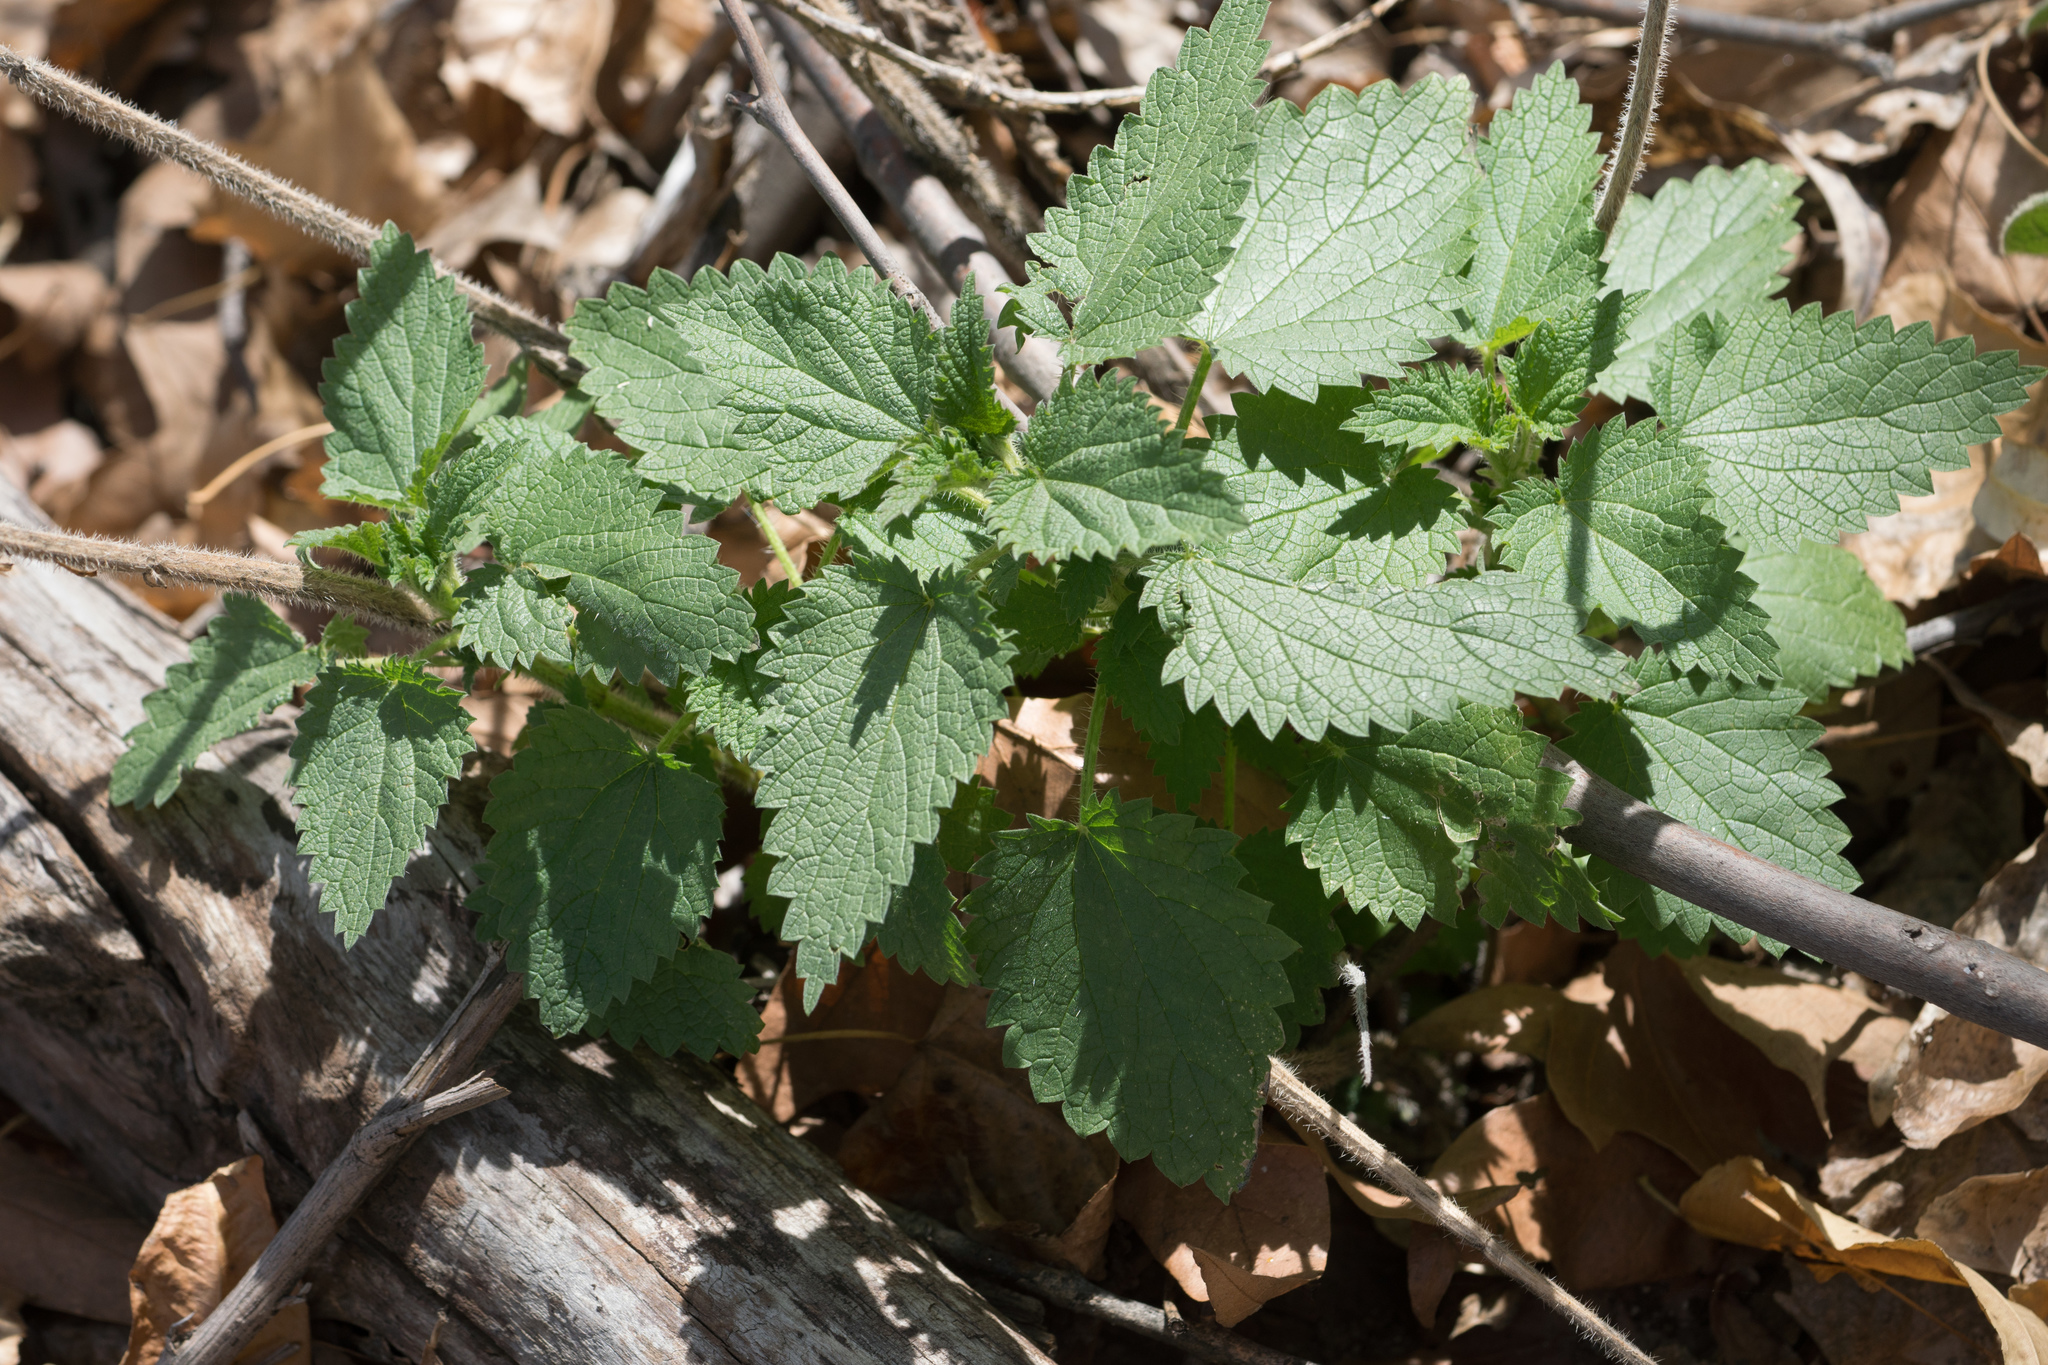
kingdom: Plantae
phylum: Tracheophyta
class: Magnoliopsida
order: Rosales
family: Urticaceae
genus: Urtica
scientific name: Urtica dioica
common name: Common nettle
